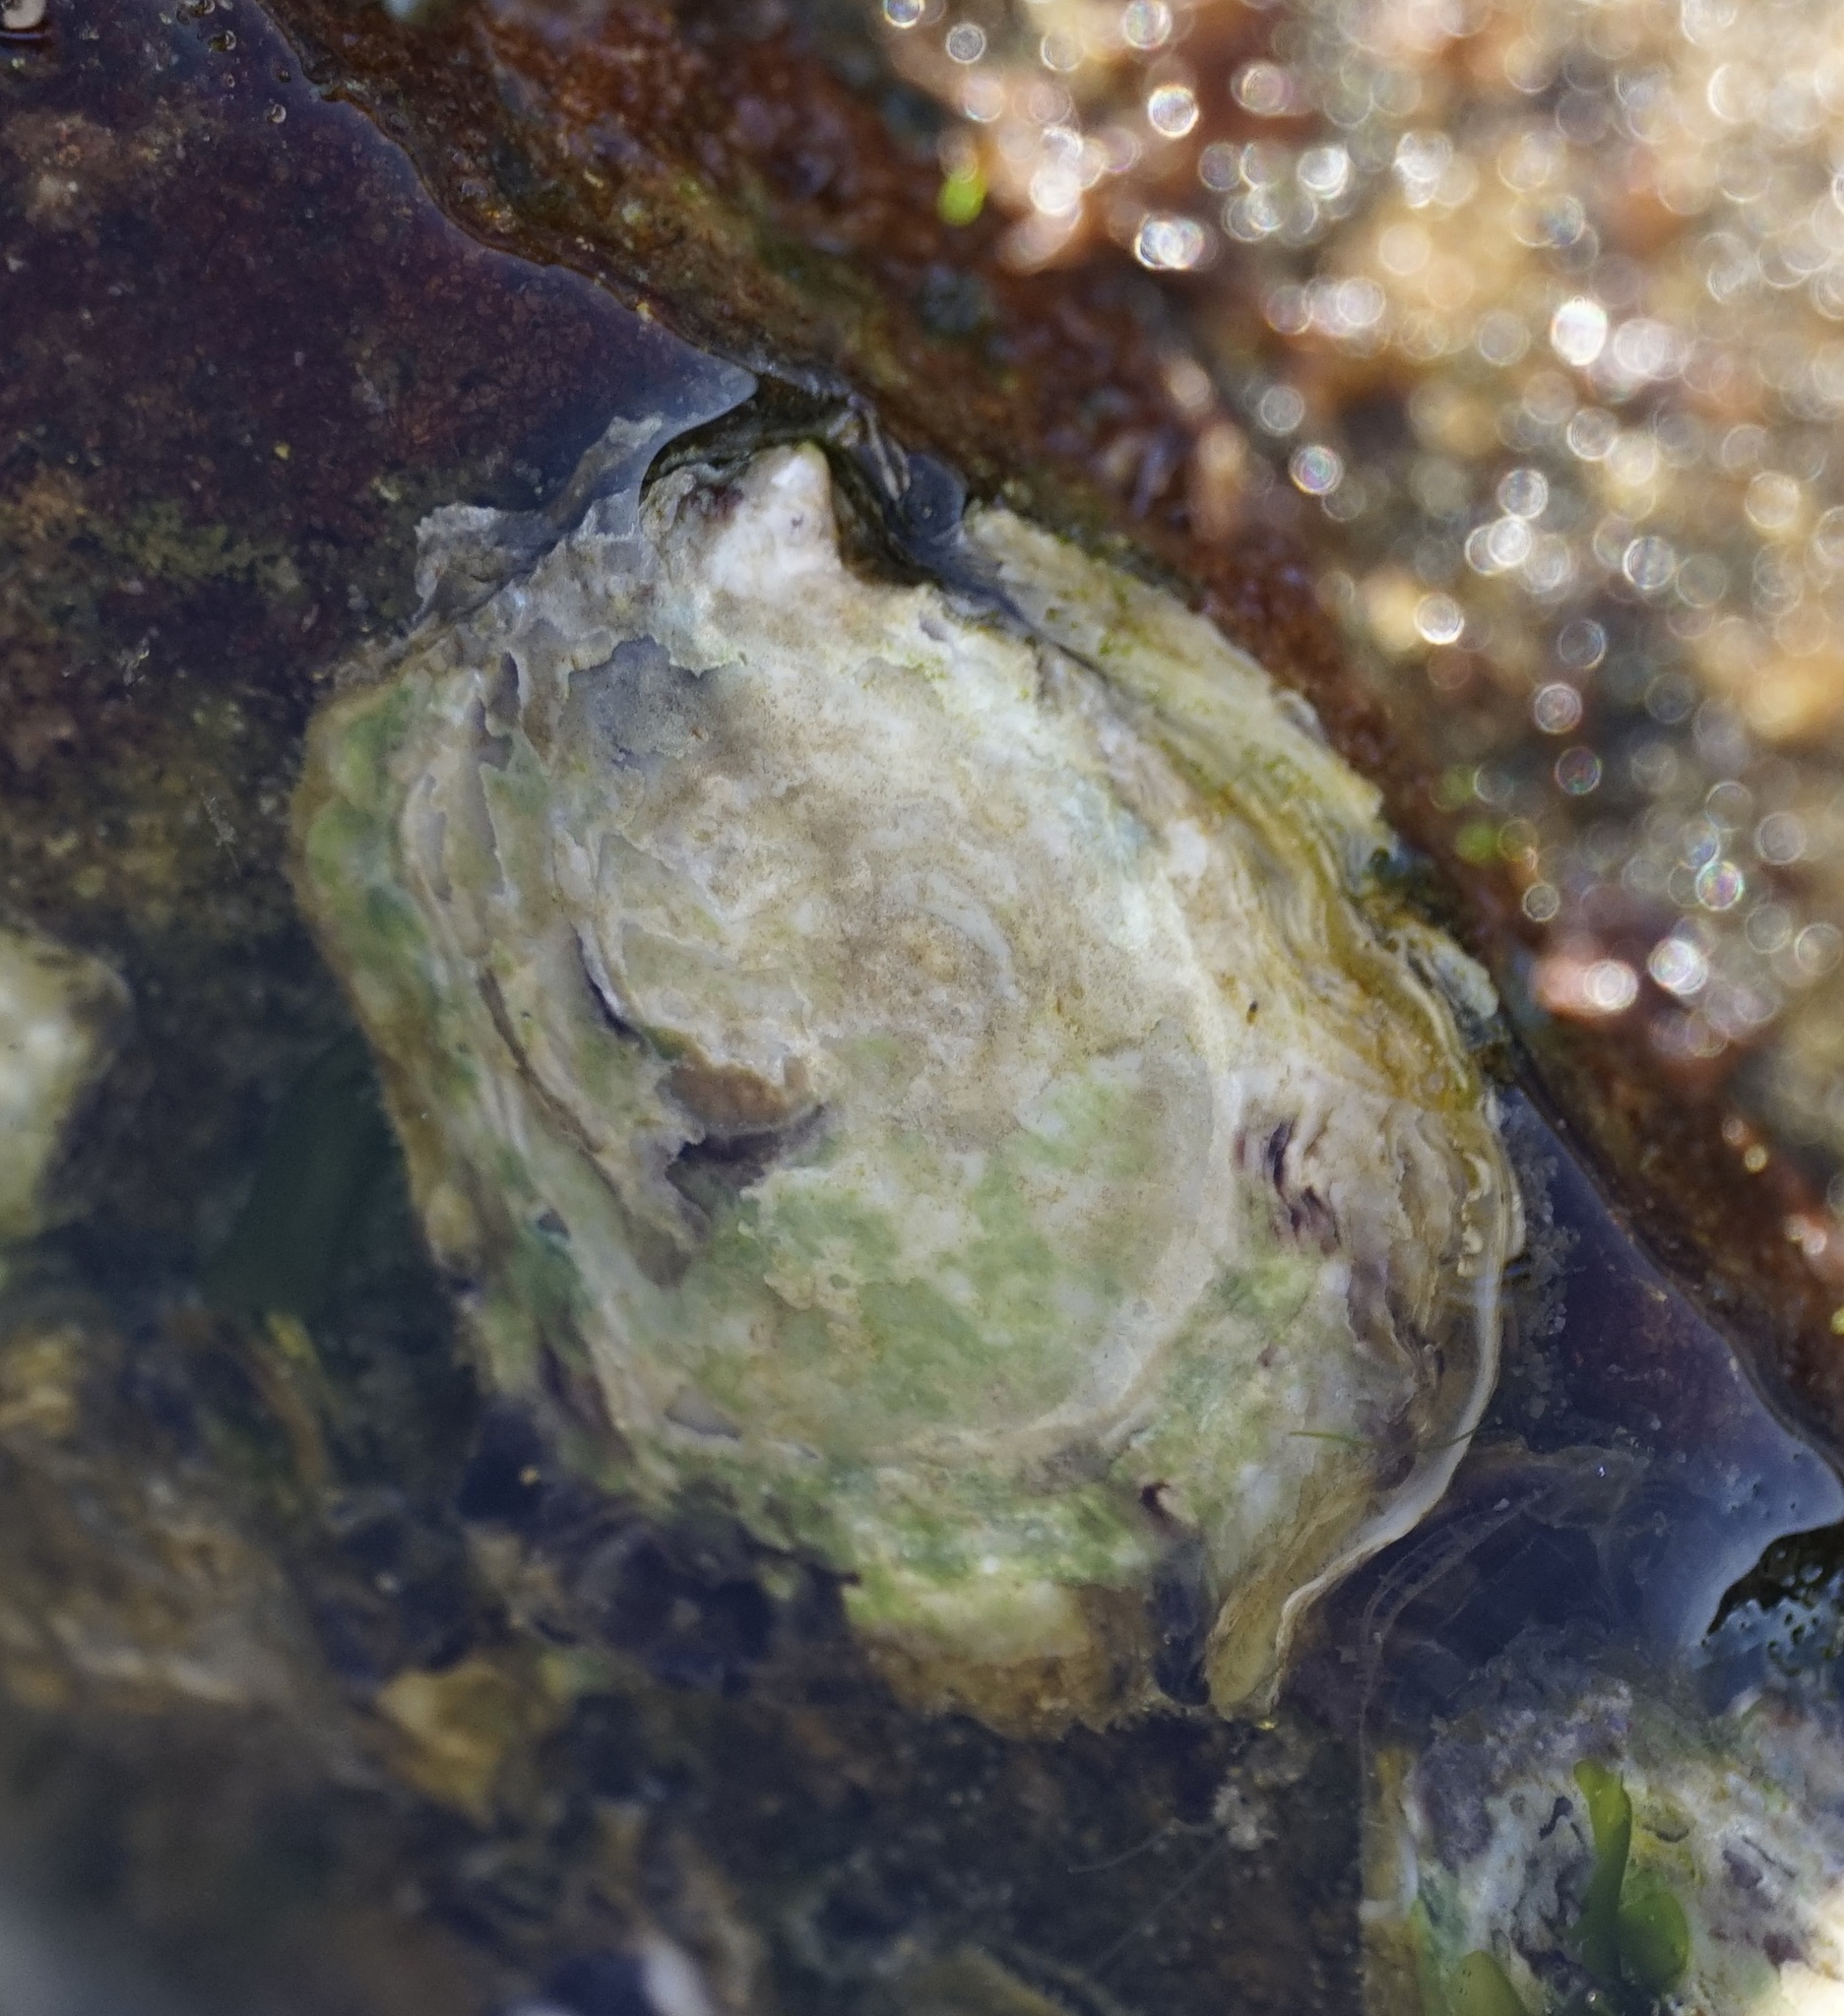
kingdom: Animalia
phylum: Mollusca
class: Bivalvia
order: Ostreida
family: Ostreidae
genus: Saccostrea
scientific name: Saccostrea glomerata
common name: Sydney cupped oyster
